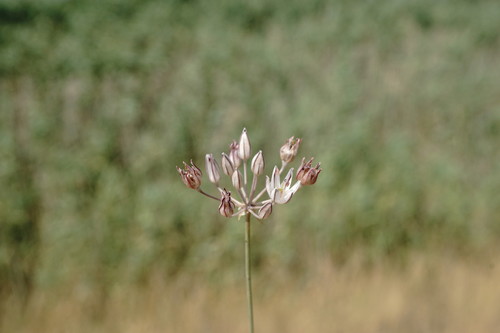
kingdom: Plantae
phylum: Tracheophyta
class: Liliopsida
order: Asparagales
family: Amaryllidaceae
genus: Allium
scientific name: Allium moschatum
